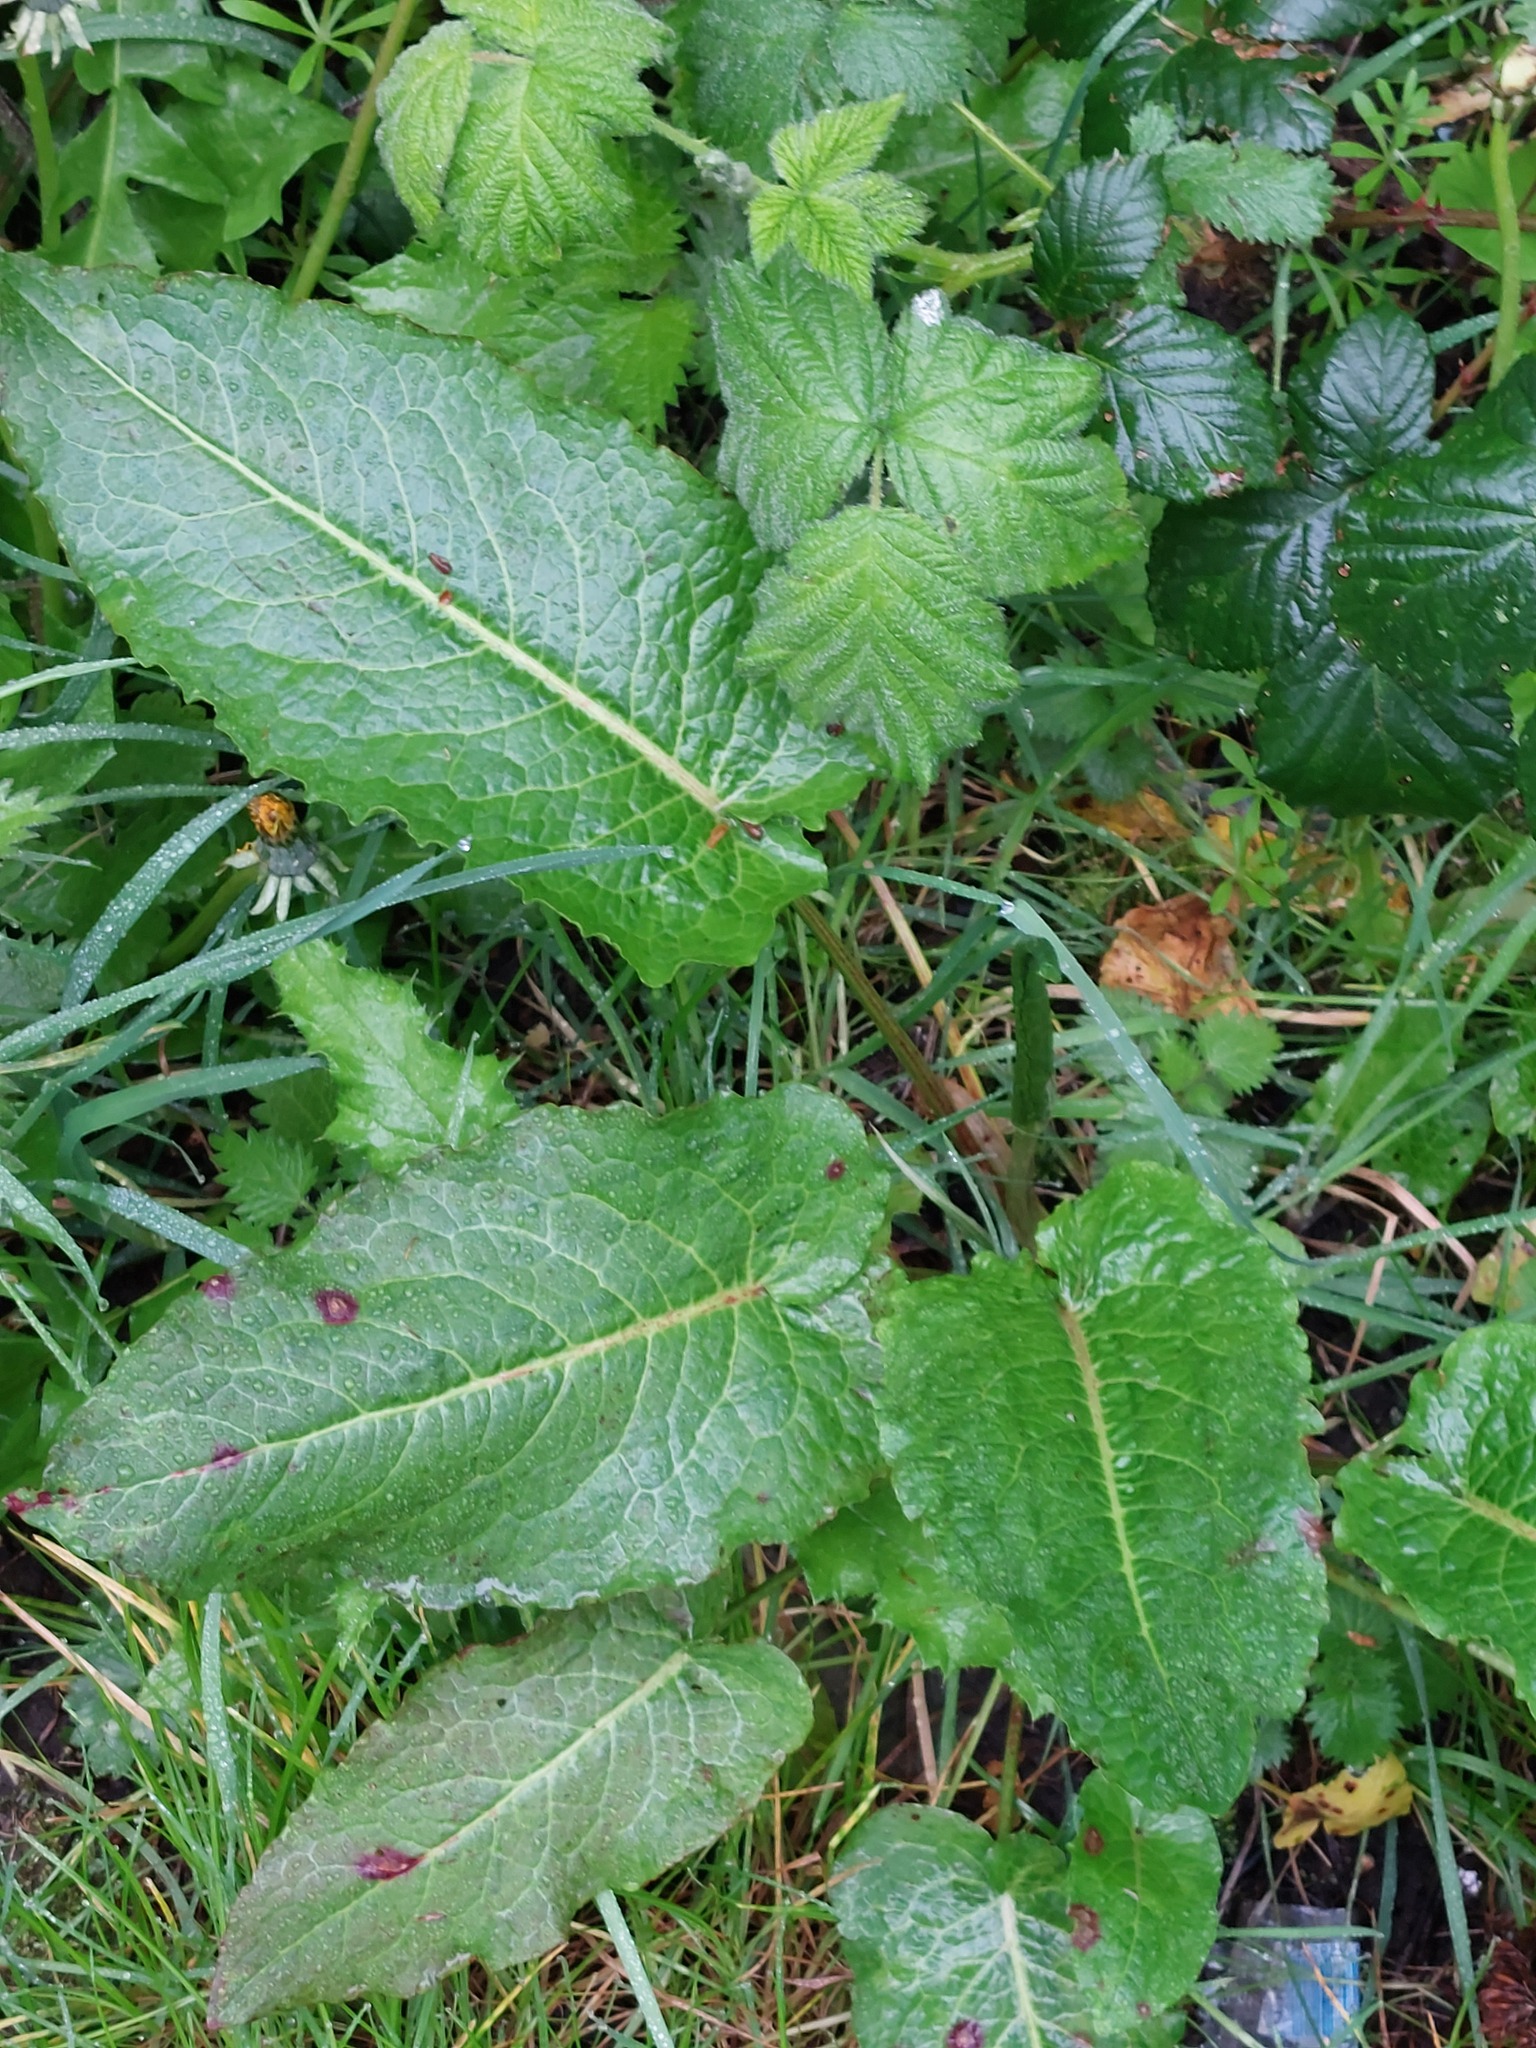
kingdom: Plantae
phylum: Tracheophyta
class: Magnoliopsida
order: Caryophyllales
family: Polygonaceae
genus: Rumex
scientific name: Rumex obtusifolius
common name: Bitter dock
